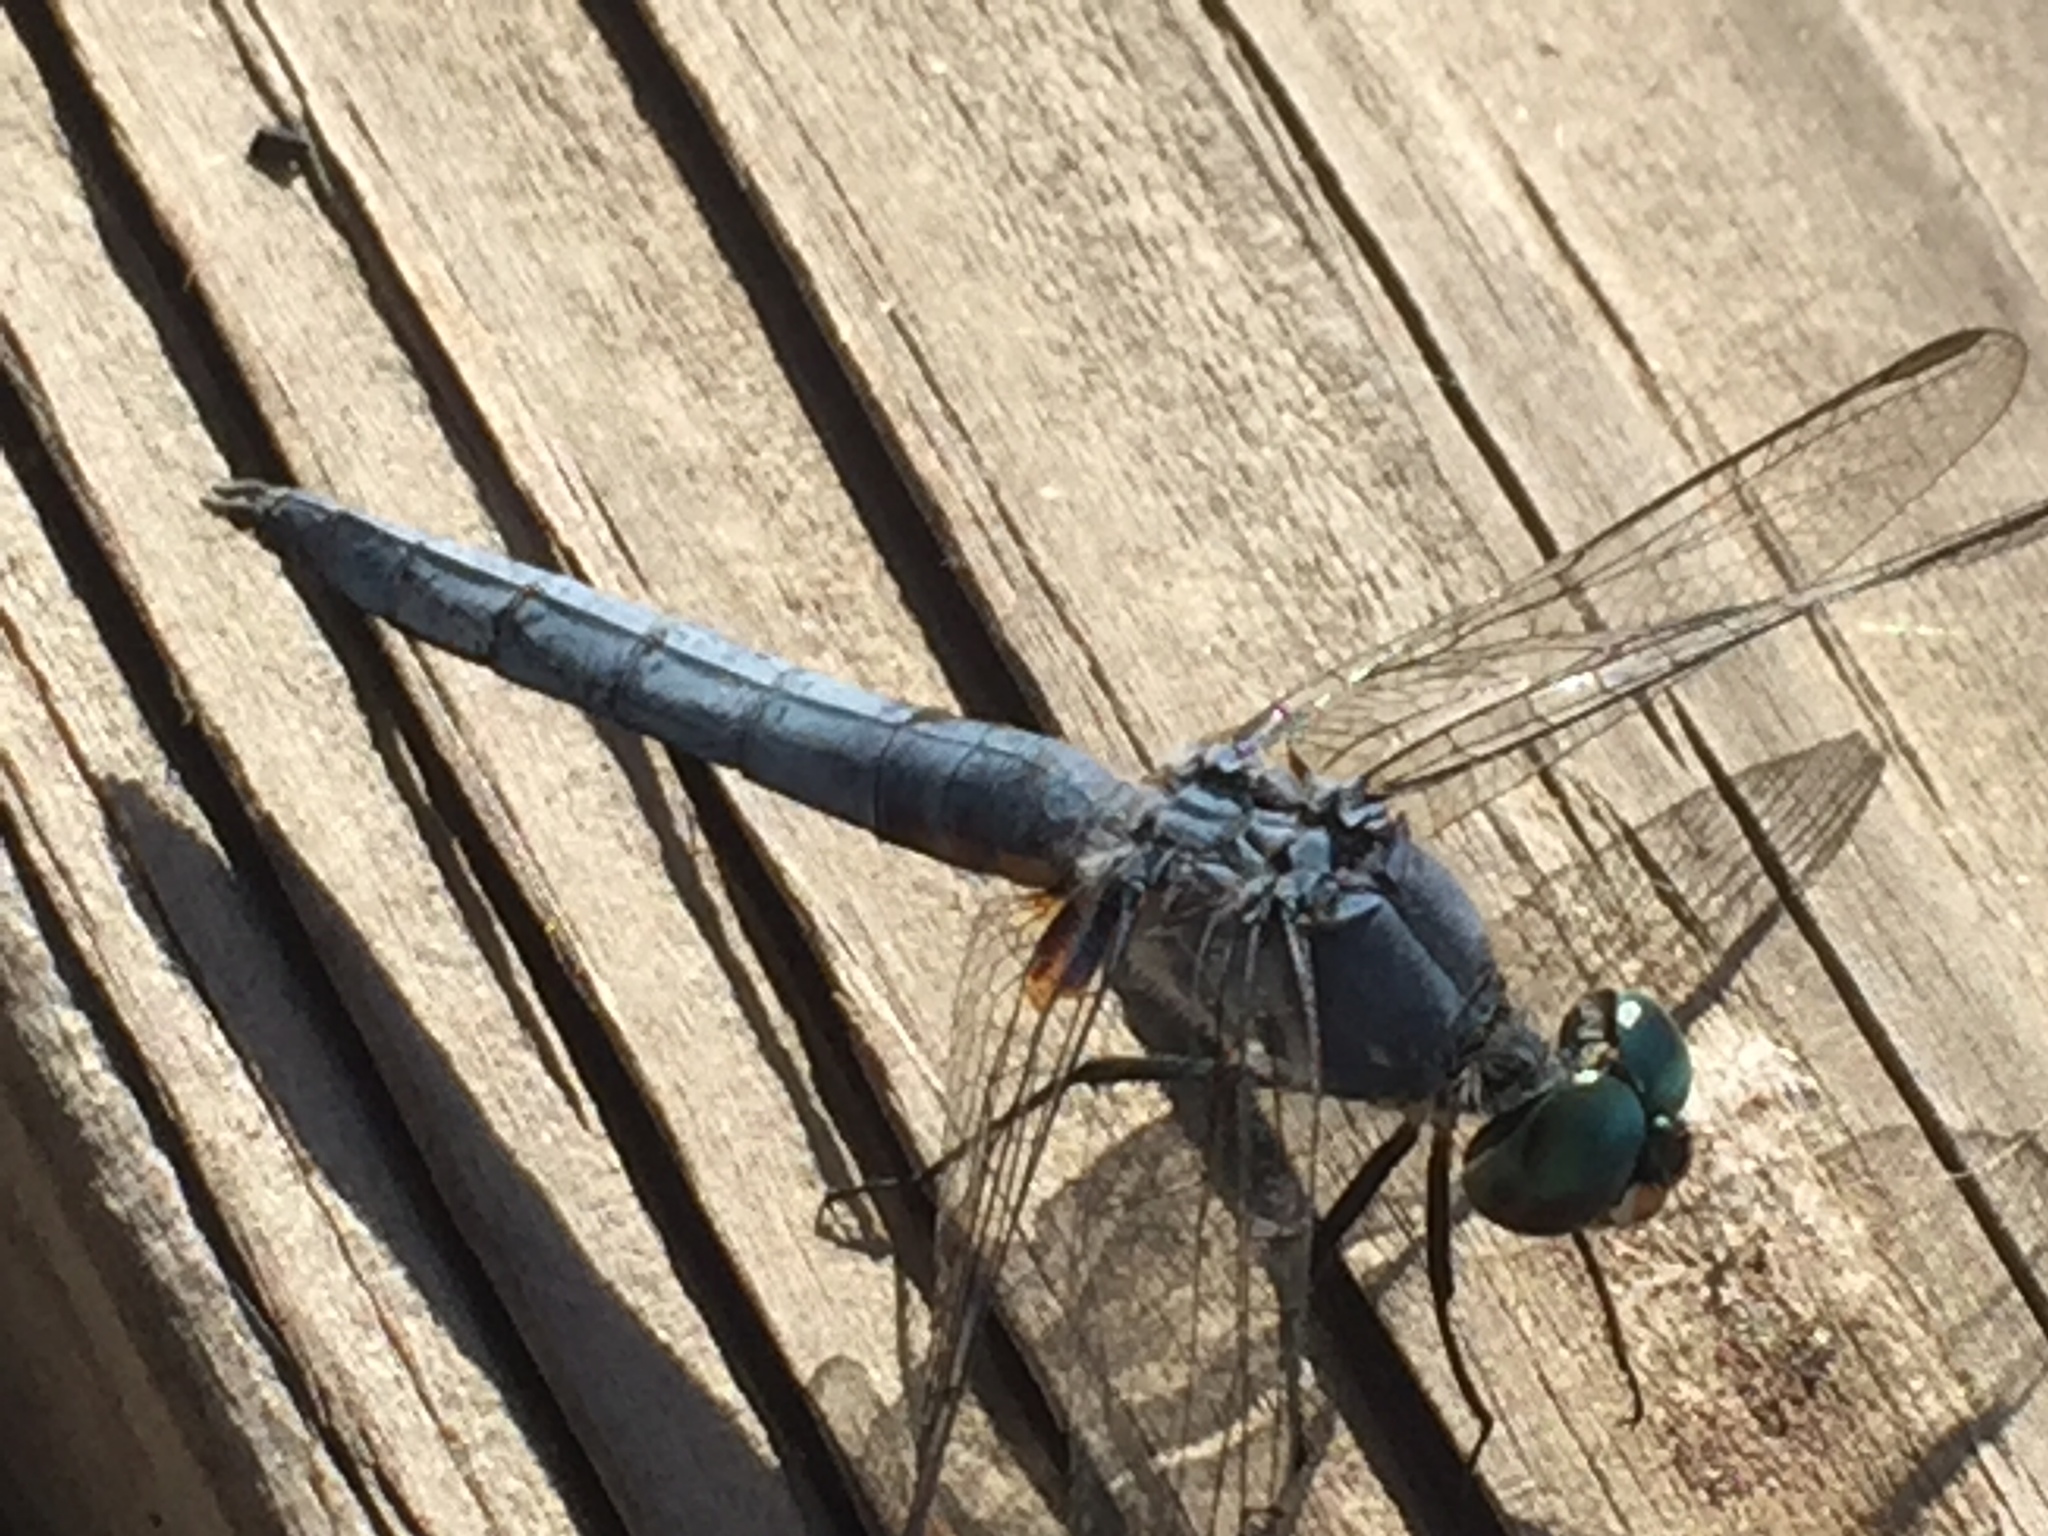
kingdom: Animalia
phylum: Arthropoda
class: Insecta
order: Odonata
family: Libellulidae
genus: Erythemis
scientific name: Erythemis collocata
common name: Western pondhawk
